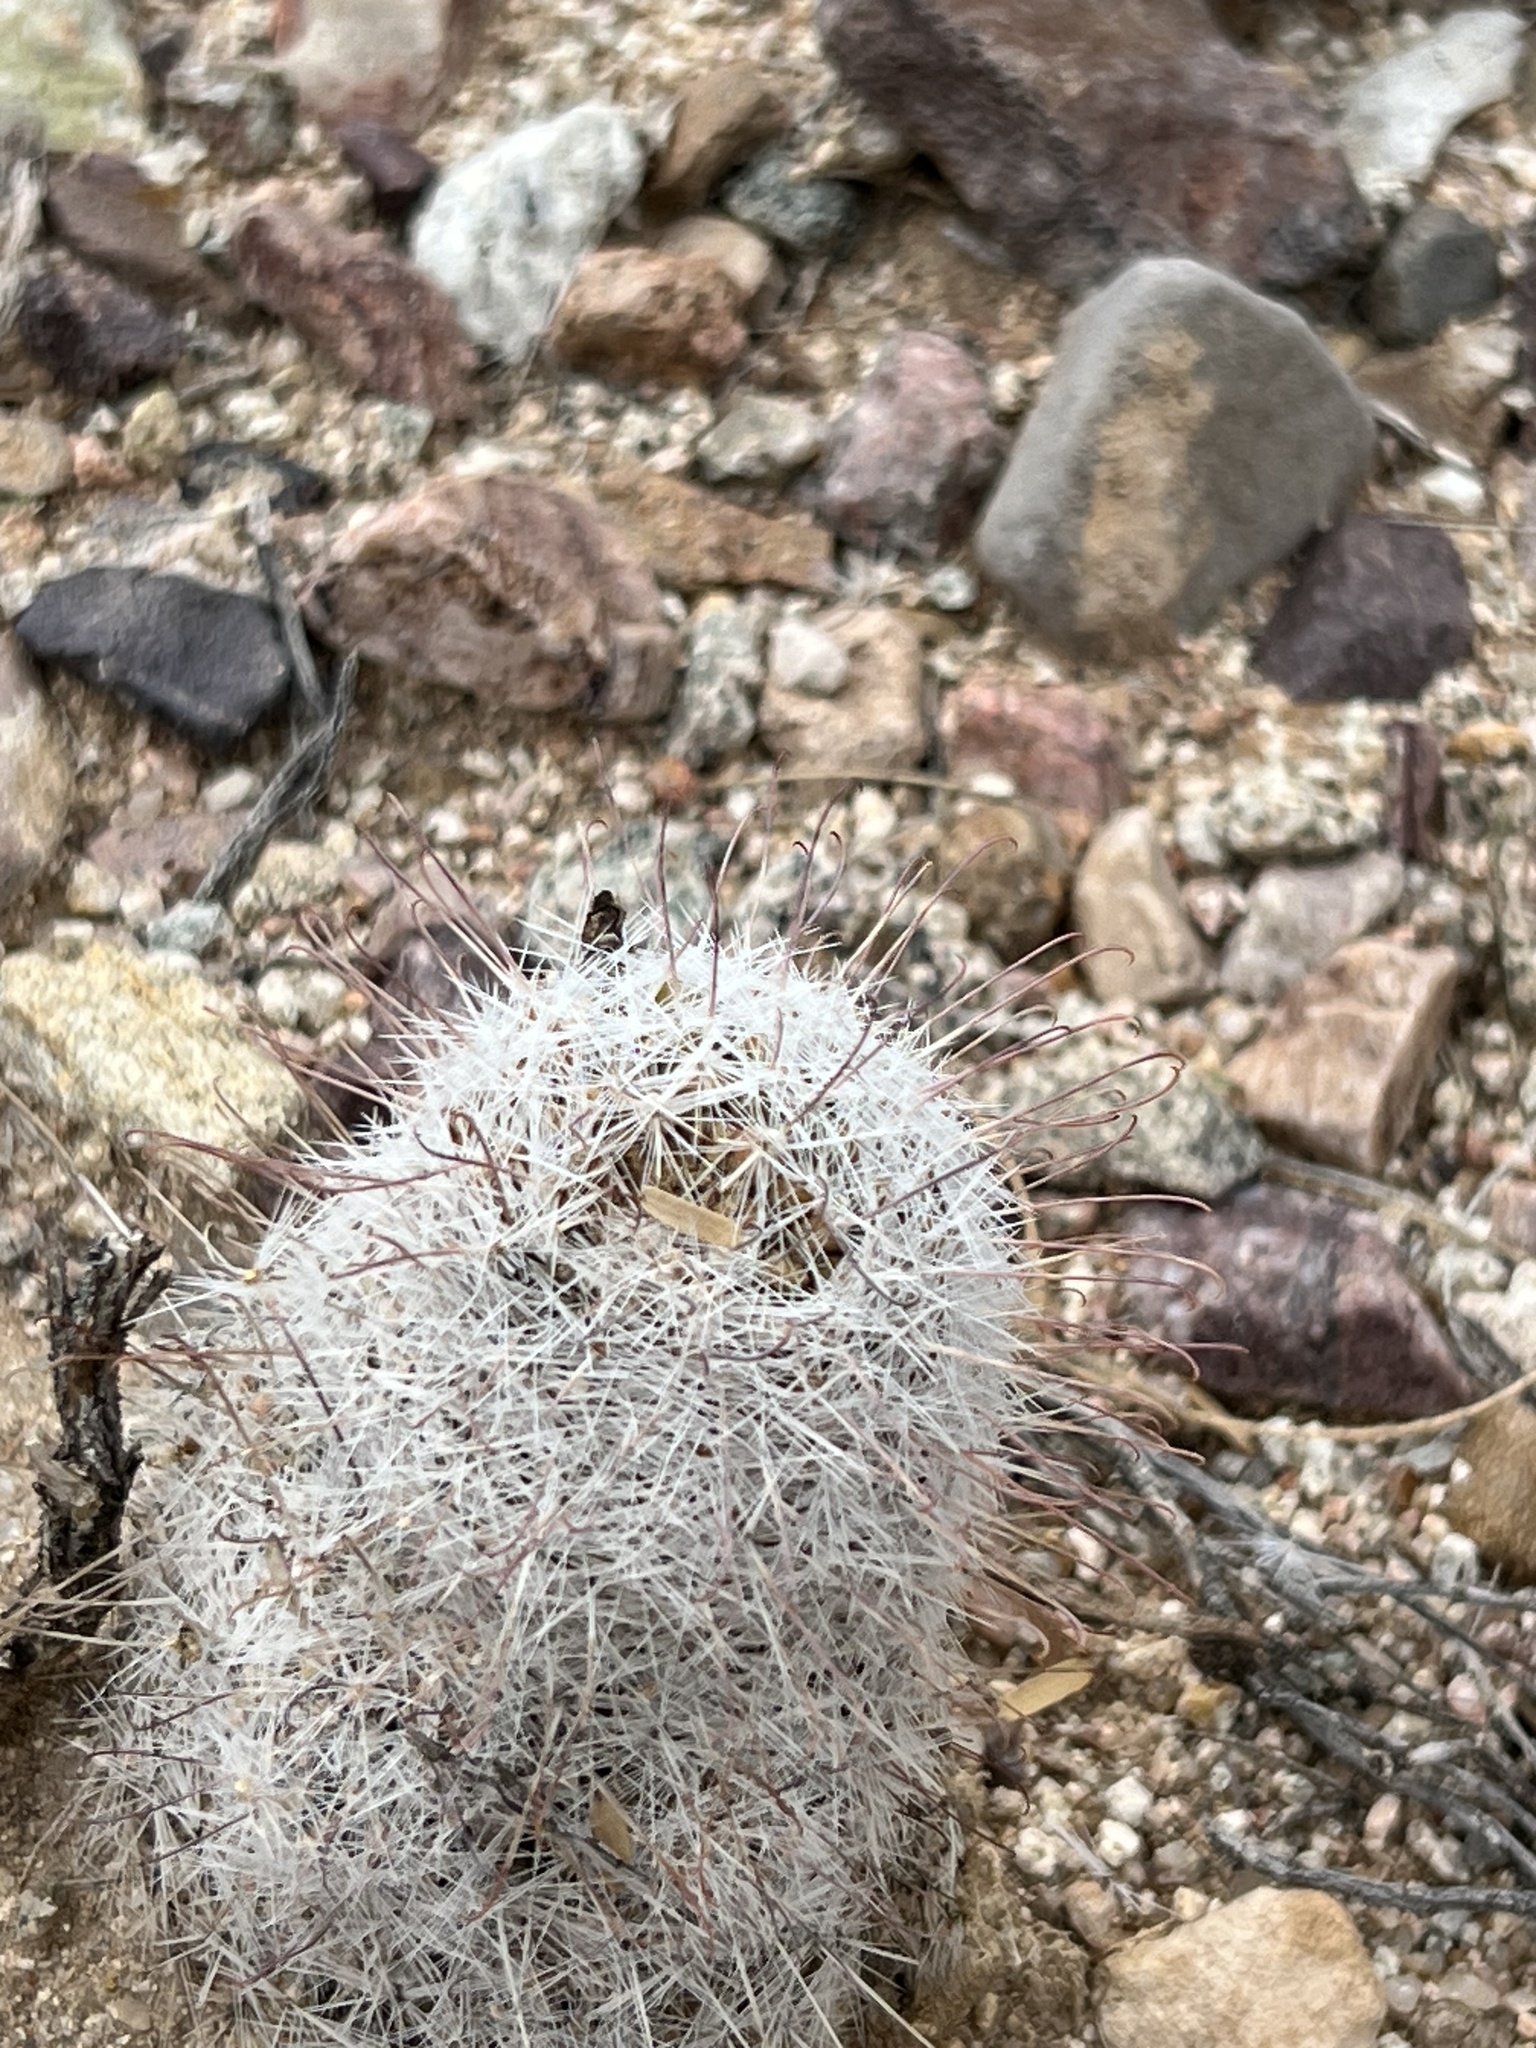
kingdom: Plantae
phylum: Tracheophyta
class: Magnoliopsida
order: Caryophyllales
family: Cactaceae
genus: Cochemiea
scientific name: Cochemiea grahamii
